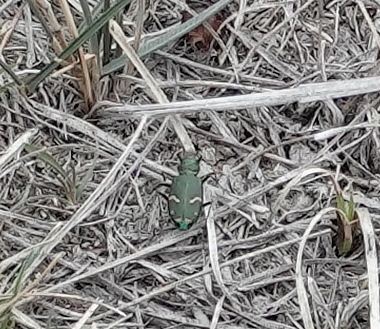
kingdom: Animalia
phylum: Arthropoda
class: Insecta
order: Coleoptera
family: Carabidae
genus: Cicindela
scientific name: Cicindela purpurea
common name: Cow path tiger beetle
